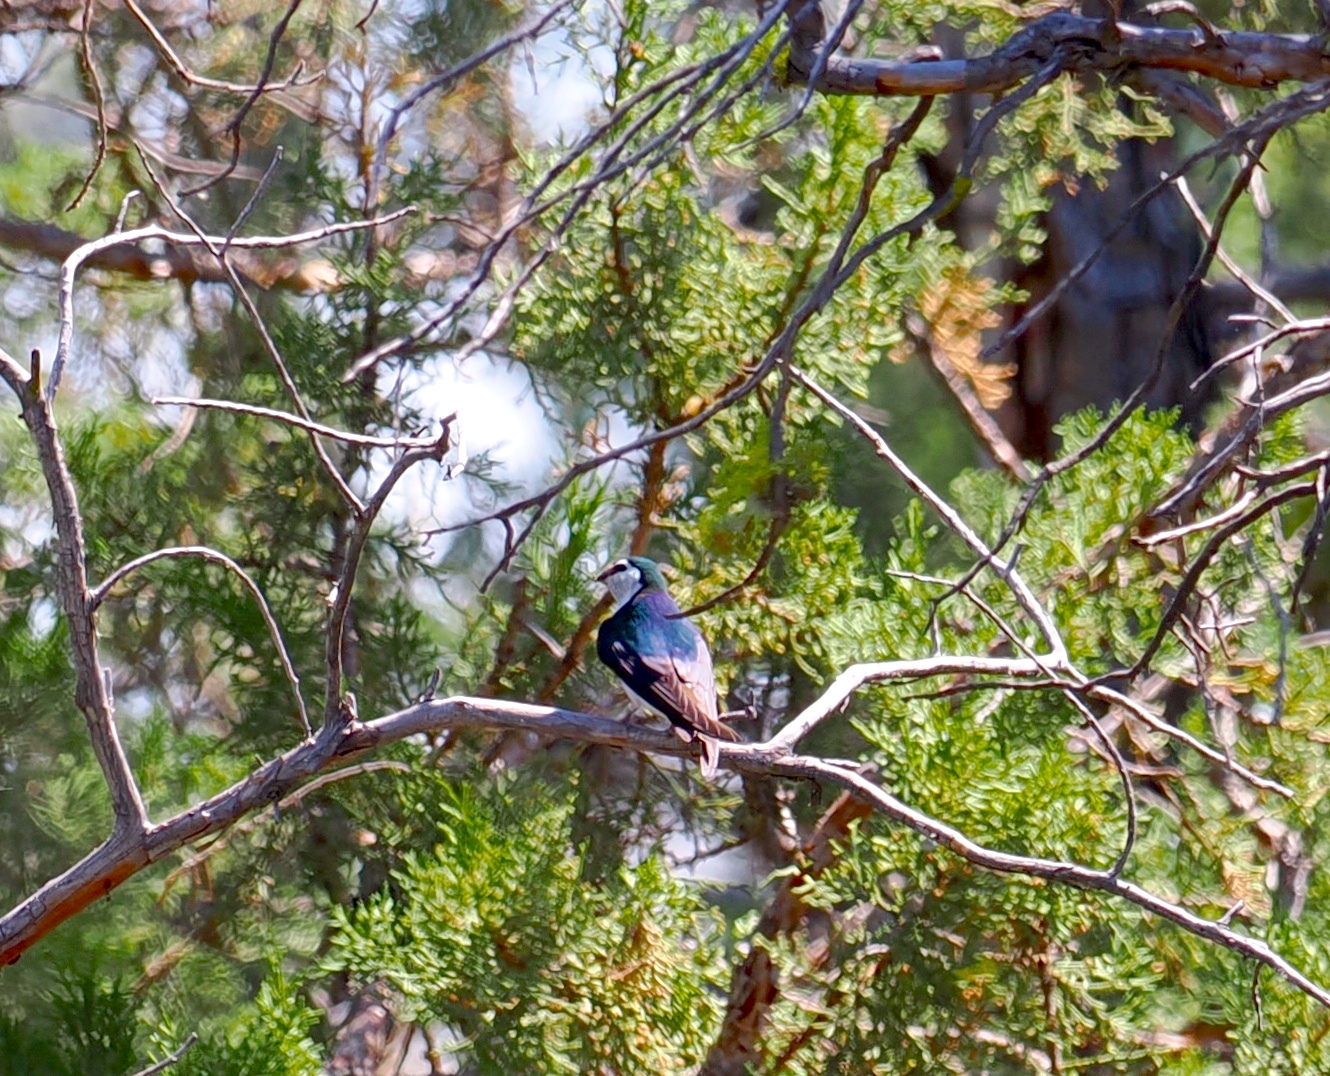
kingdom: Animalia
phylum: Chordata
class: Aves
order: Passeriformes
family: Hirundinidae
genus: Tachycineta
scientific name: Tachycineta thalassina
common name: Violet-green swallow
